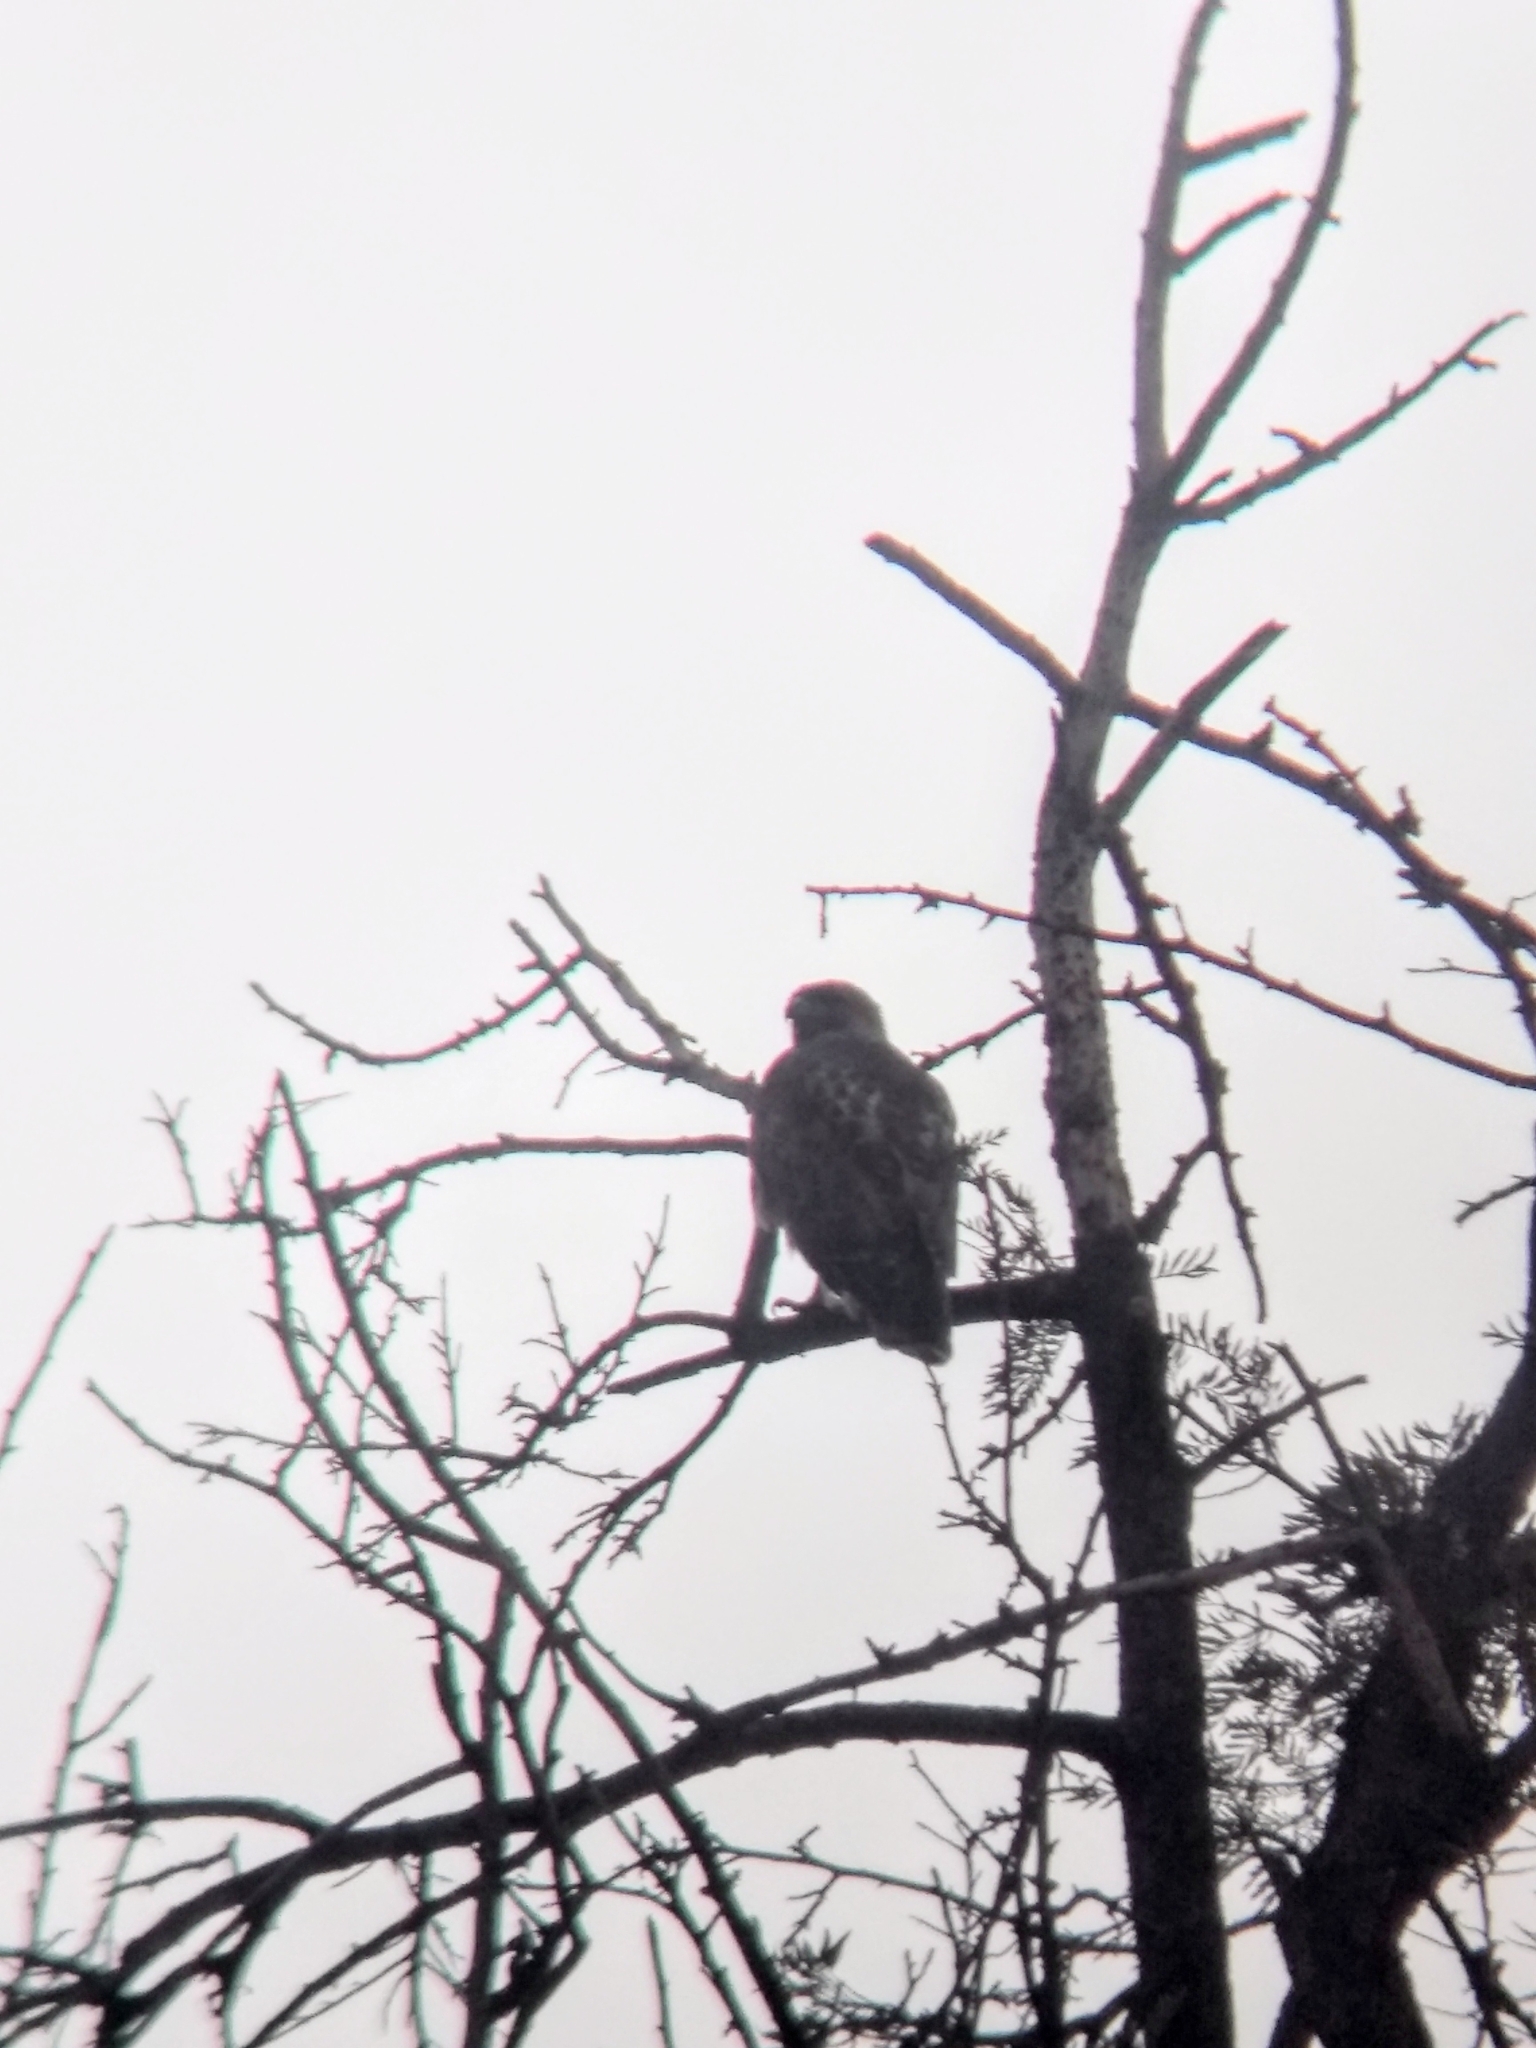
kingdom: Animalia
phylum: Chordata
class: Aves
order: Accipitriformes
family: Accipitridae
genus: Buteo
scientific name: Buteo jamaicensis
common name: Red-tailed hawk
